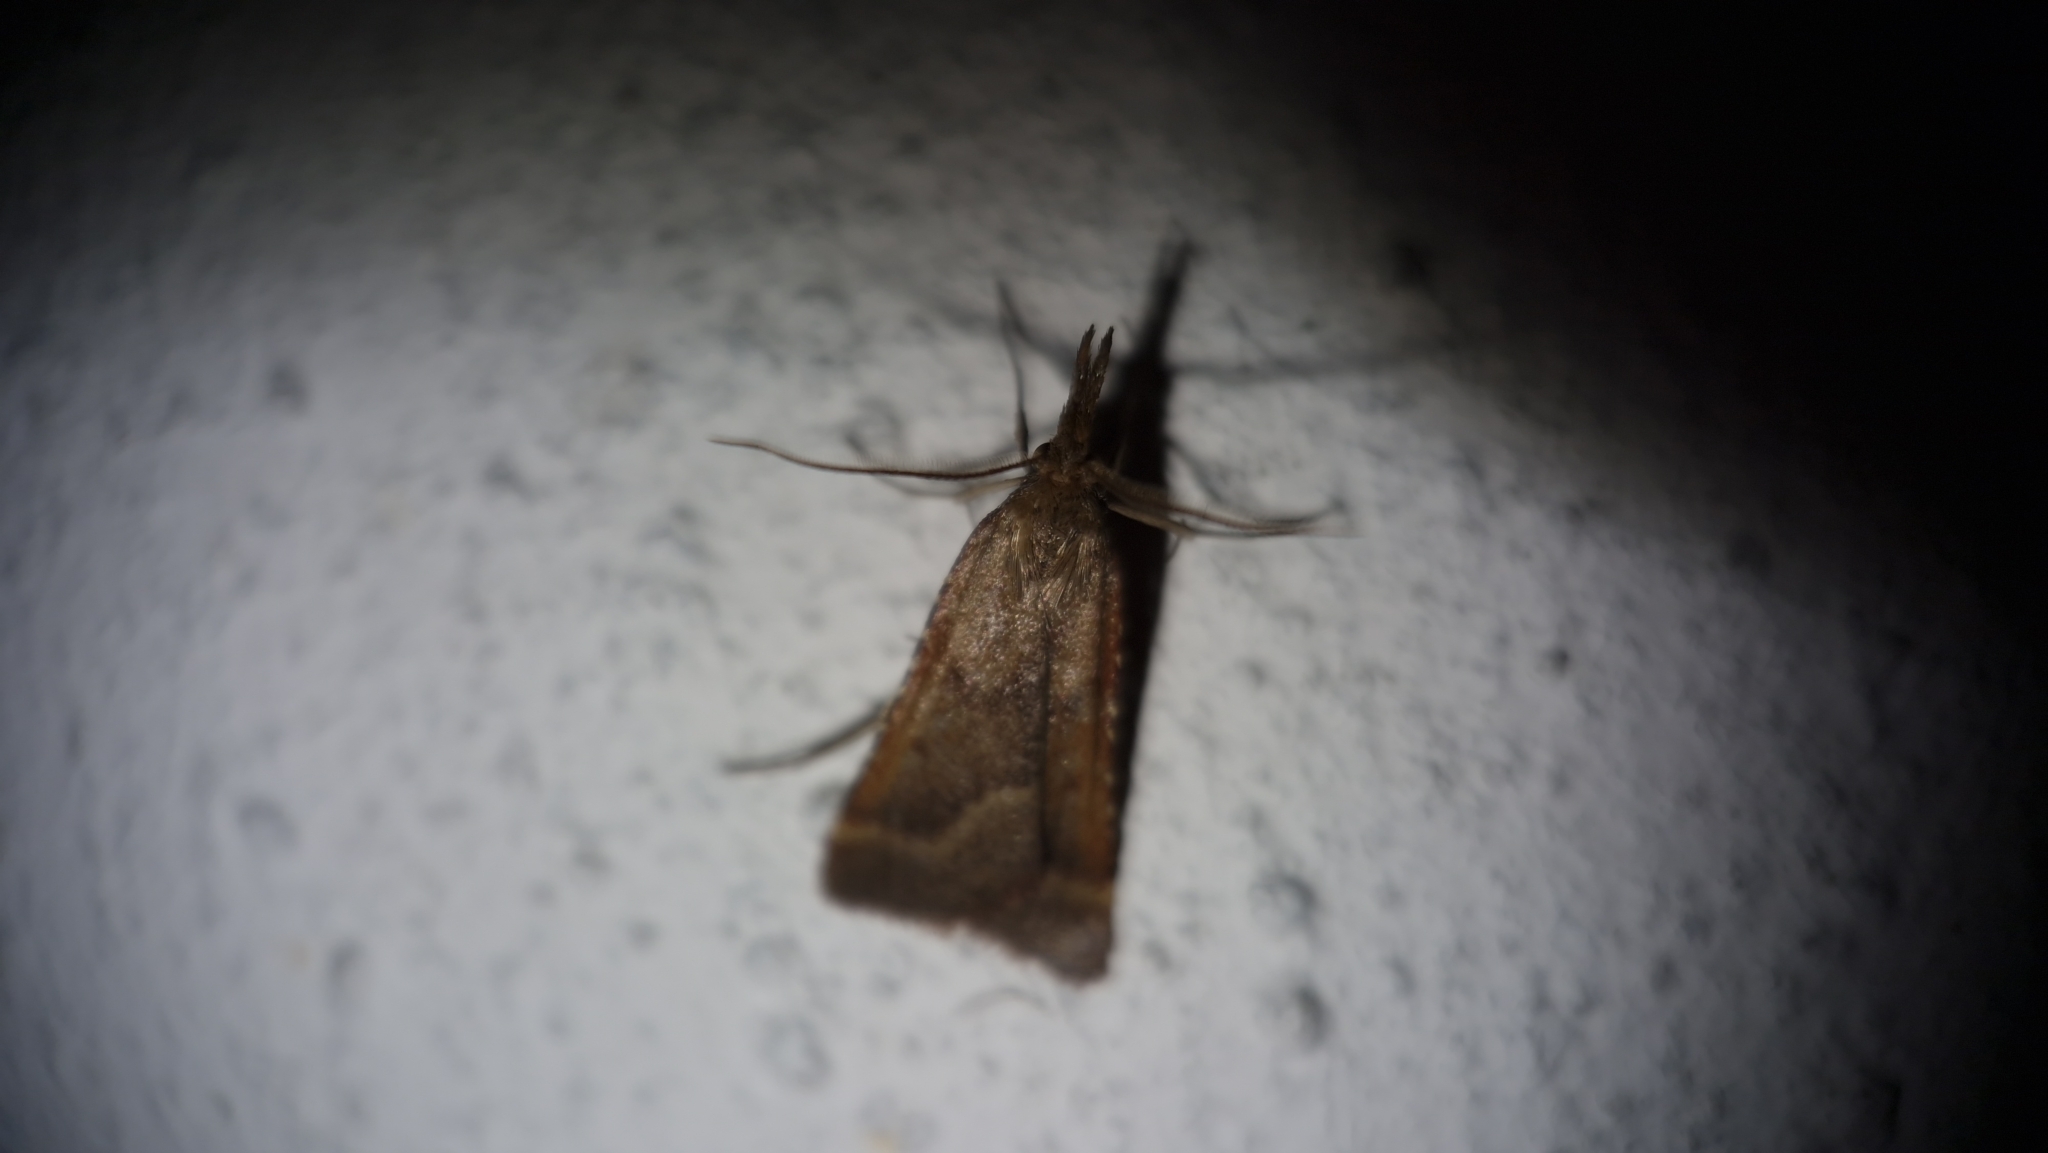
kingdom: Animalia
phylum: Arthropoda
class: Insecta
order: Lepidoptera
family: Pyralidae
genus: Synaphe
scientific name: Synaphe punctalis
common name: Long-legged tabby
